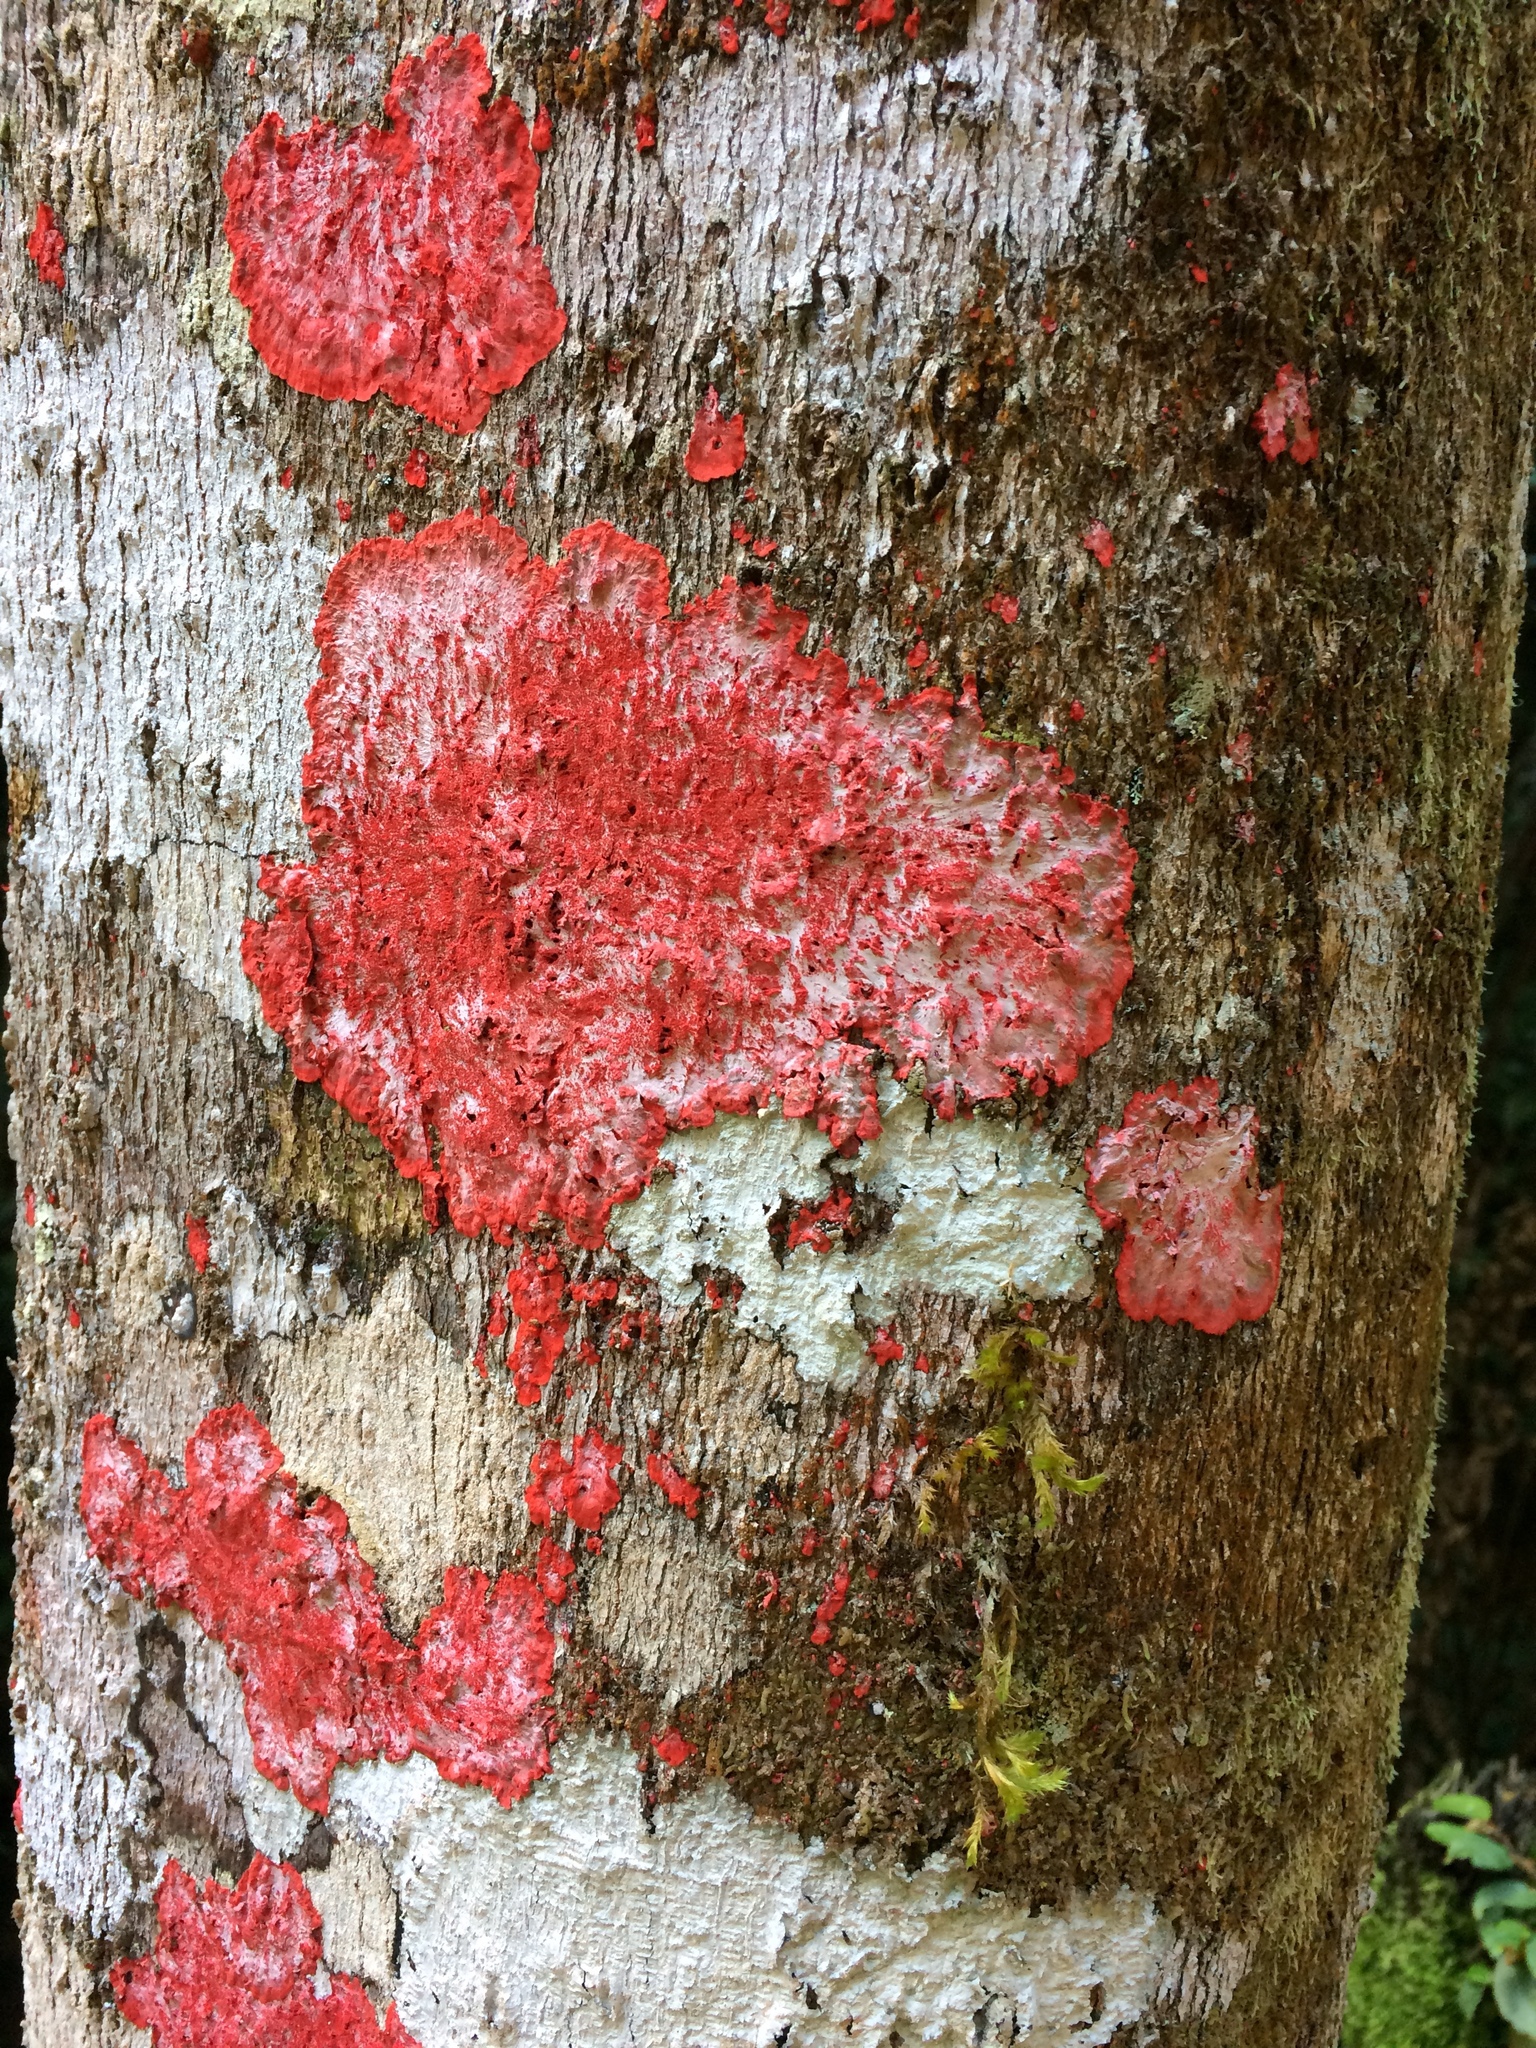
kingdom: Fungi
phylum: Ascomycota
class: Arthoniomycetes
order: Arthoniales
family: Arthoniaceae
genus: Herpothallon
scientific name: Herpothallon rubrocinctum
